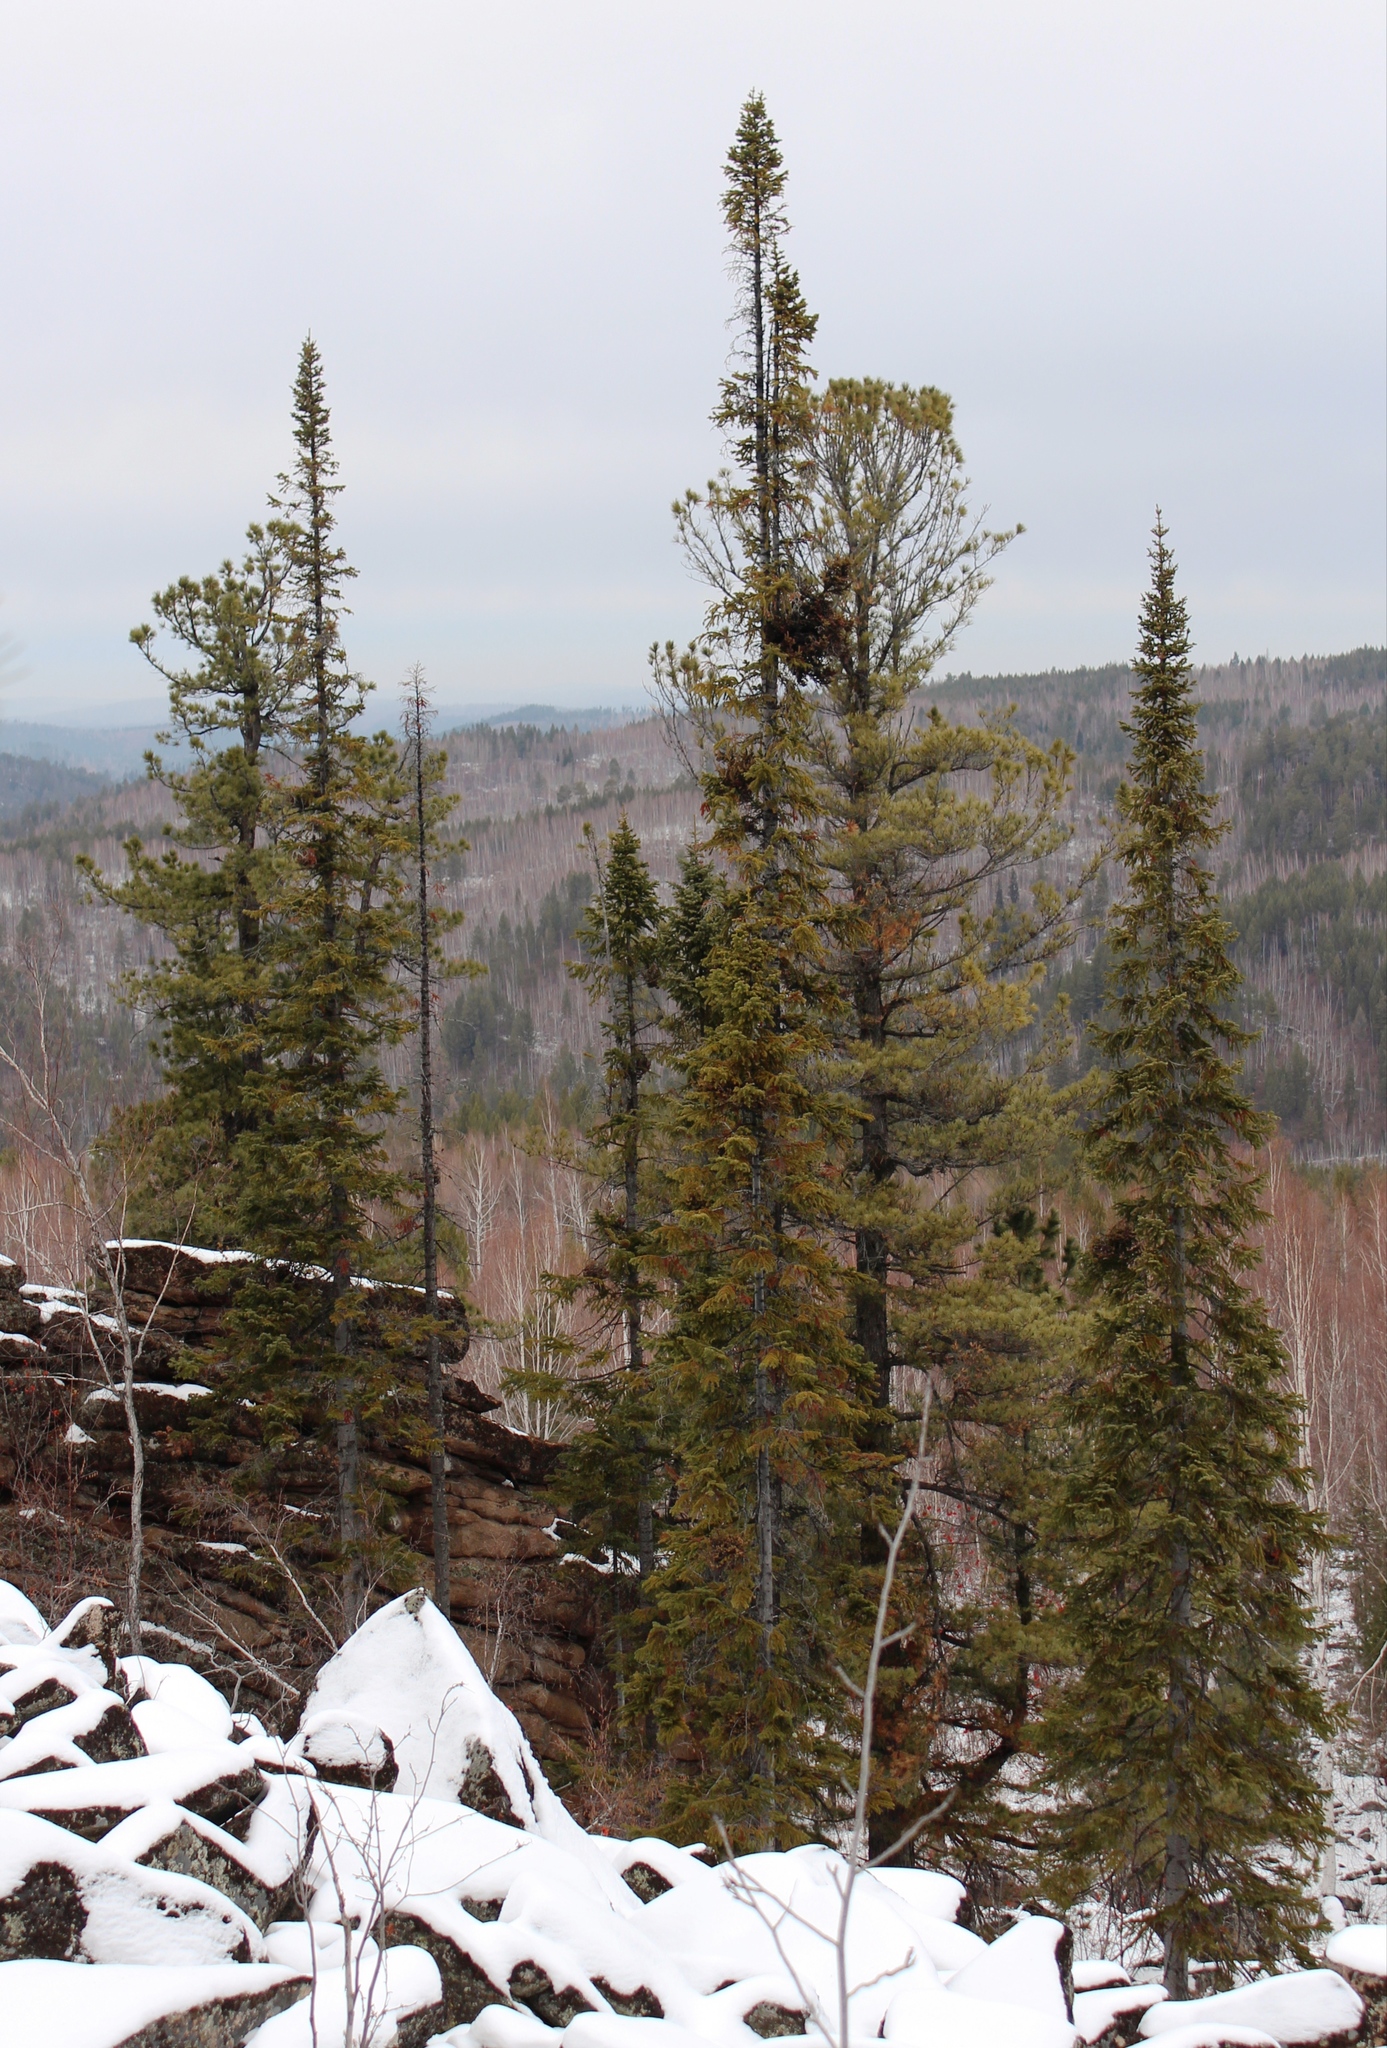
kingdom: Plantae
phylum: Tracheophyta
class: Pinopsida
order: Pinales
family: Pinaceae
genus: Abies
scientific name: Abies sibirica
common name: Siberian fir
